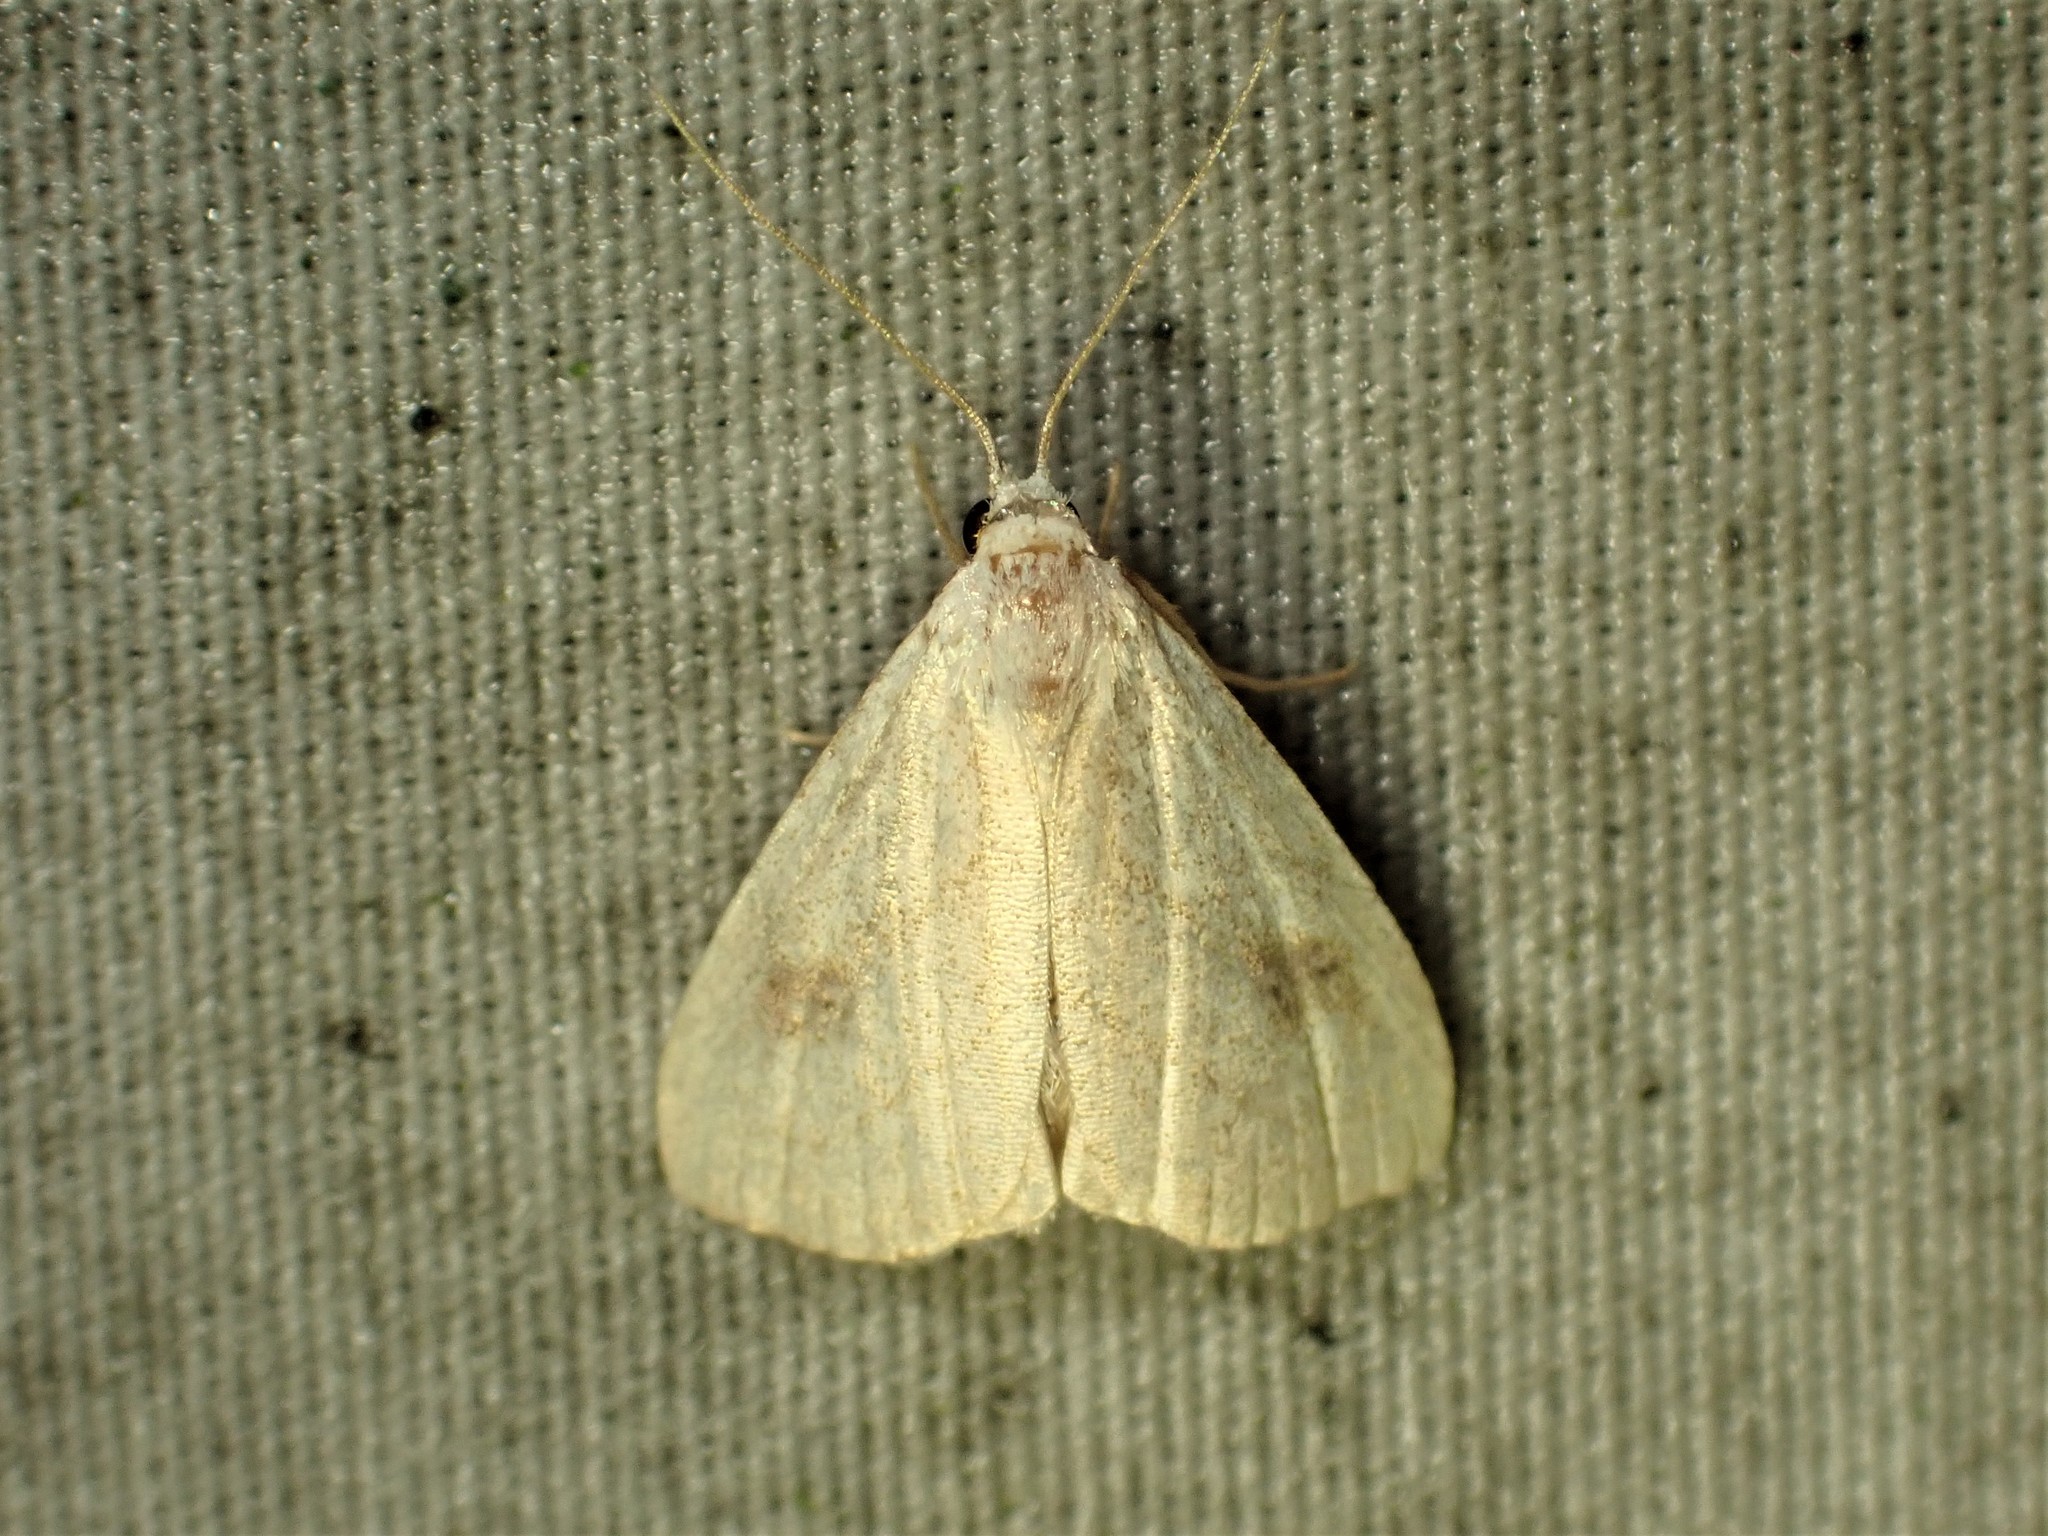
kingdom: Animalia
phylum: Arthropoda
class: Insecta
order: Lepidoptera
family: Erebidae
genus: Rivula
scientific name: Rivula propinqualis
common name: Spotted grass moth
